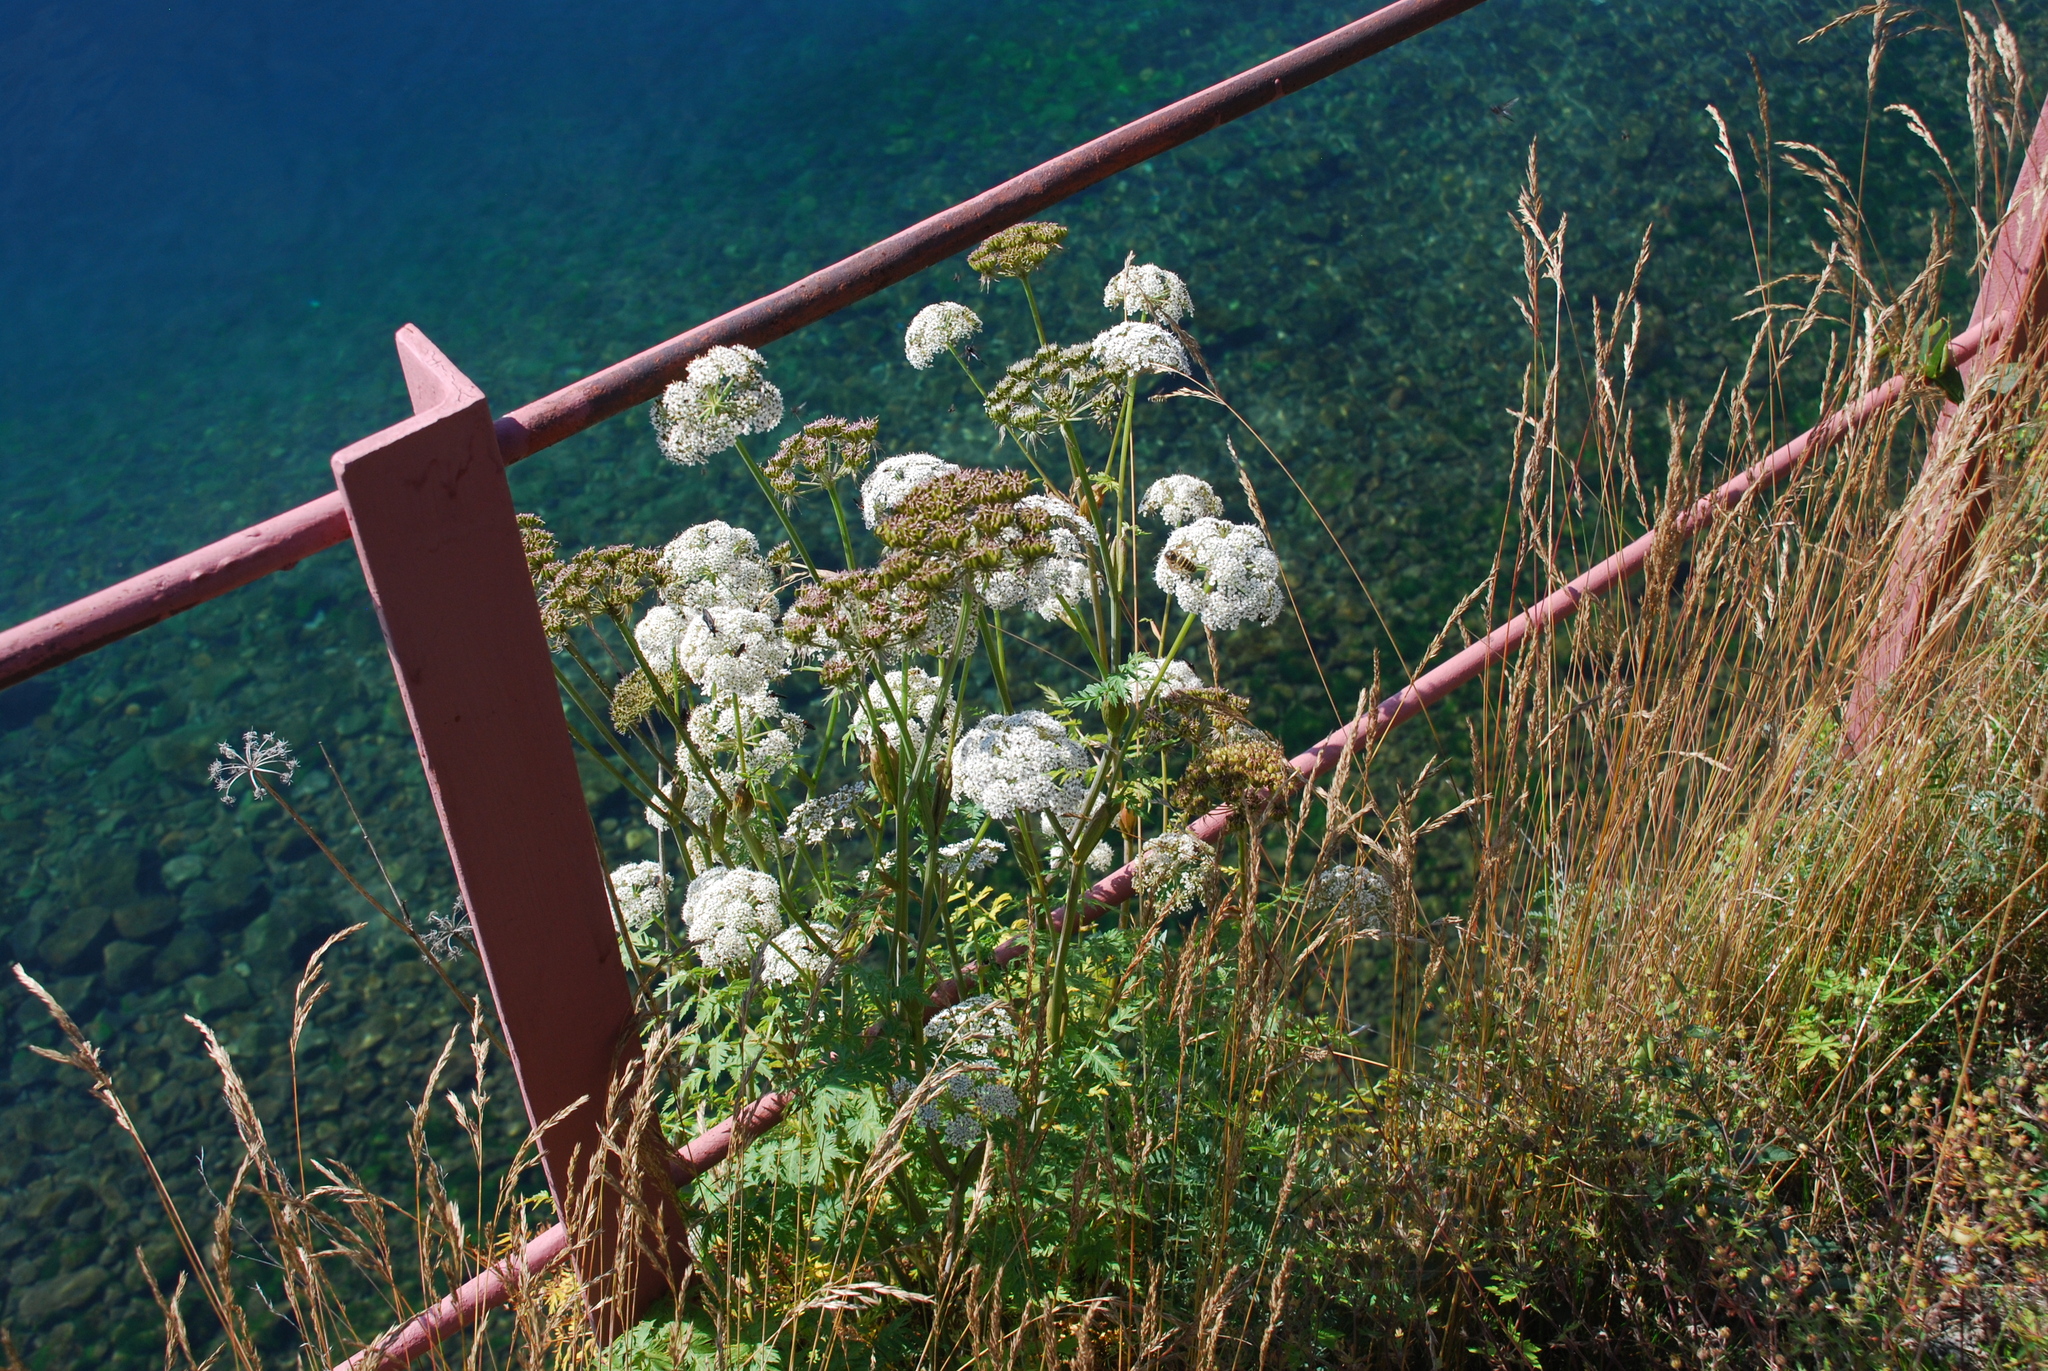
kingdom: Plantae
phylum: Tracheophyta
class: Magnoliopsida
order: Apiales
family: Apiaceae
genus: Conioselinum
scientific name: Conioselinum tataricum
